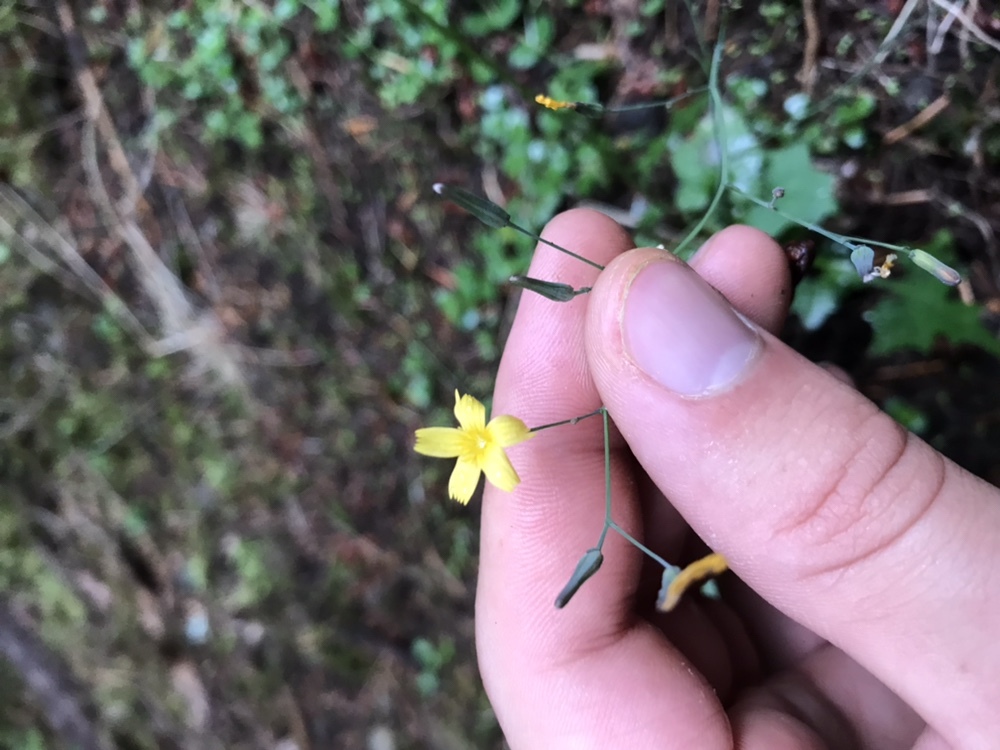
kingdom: Plantae
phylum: Tracheophyta
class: Magnoliopsida
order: Asterales
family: Asteraceae
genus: Mycelis
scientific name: Mycelis muralis
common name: Wall lettuce
